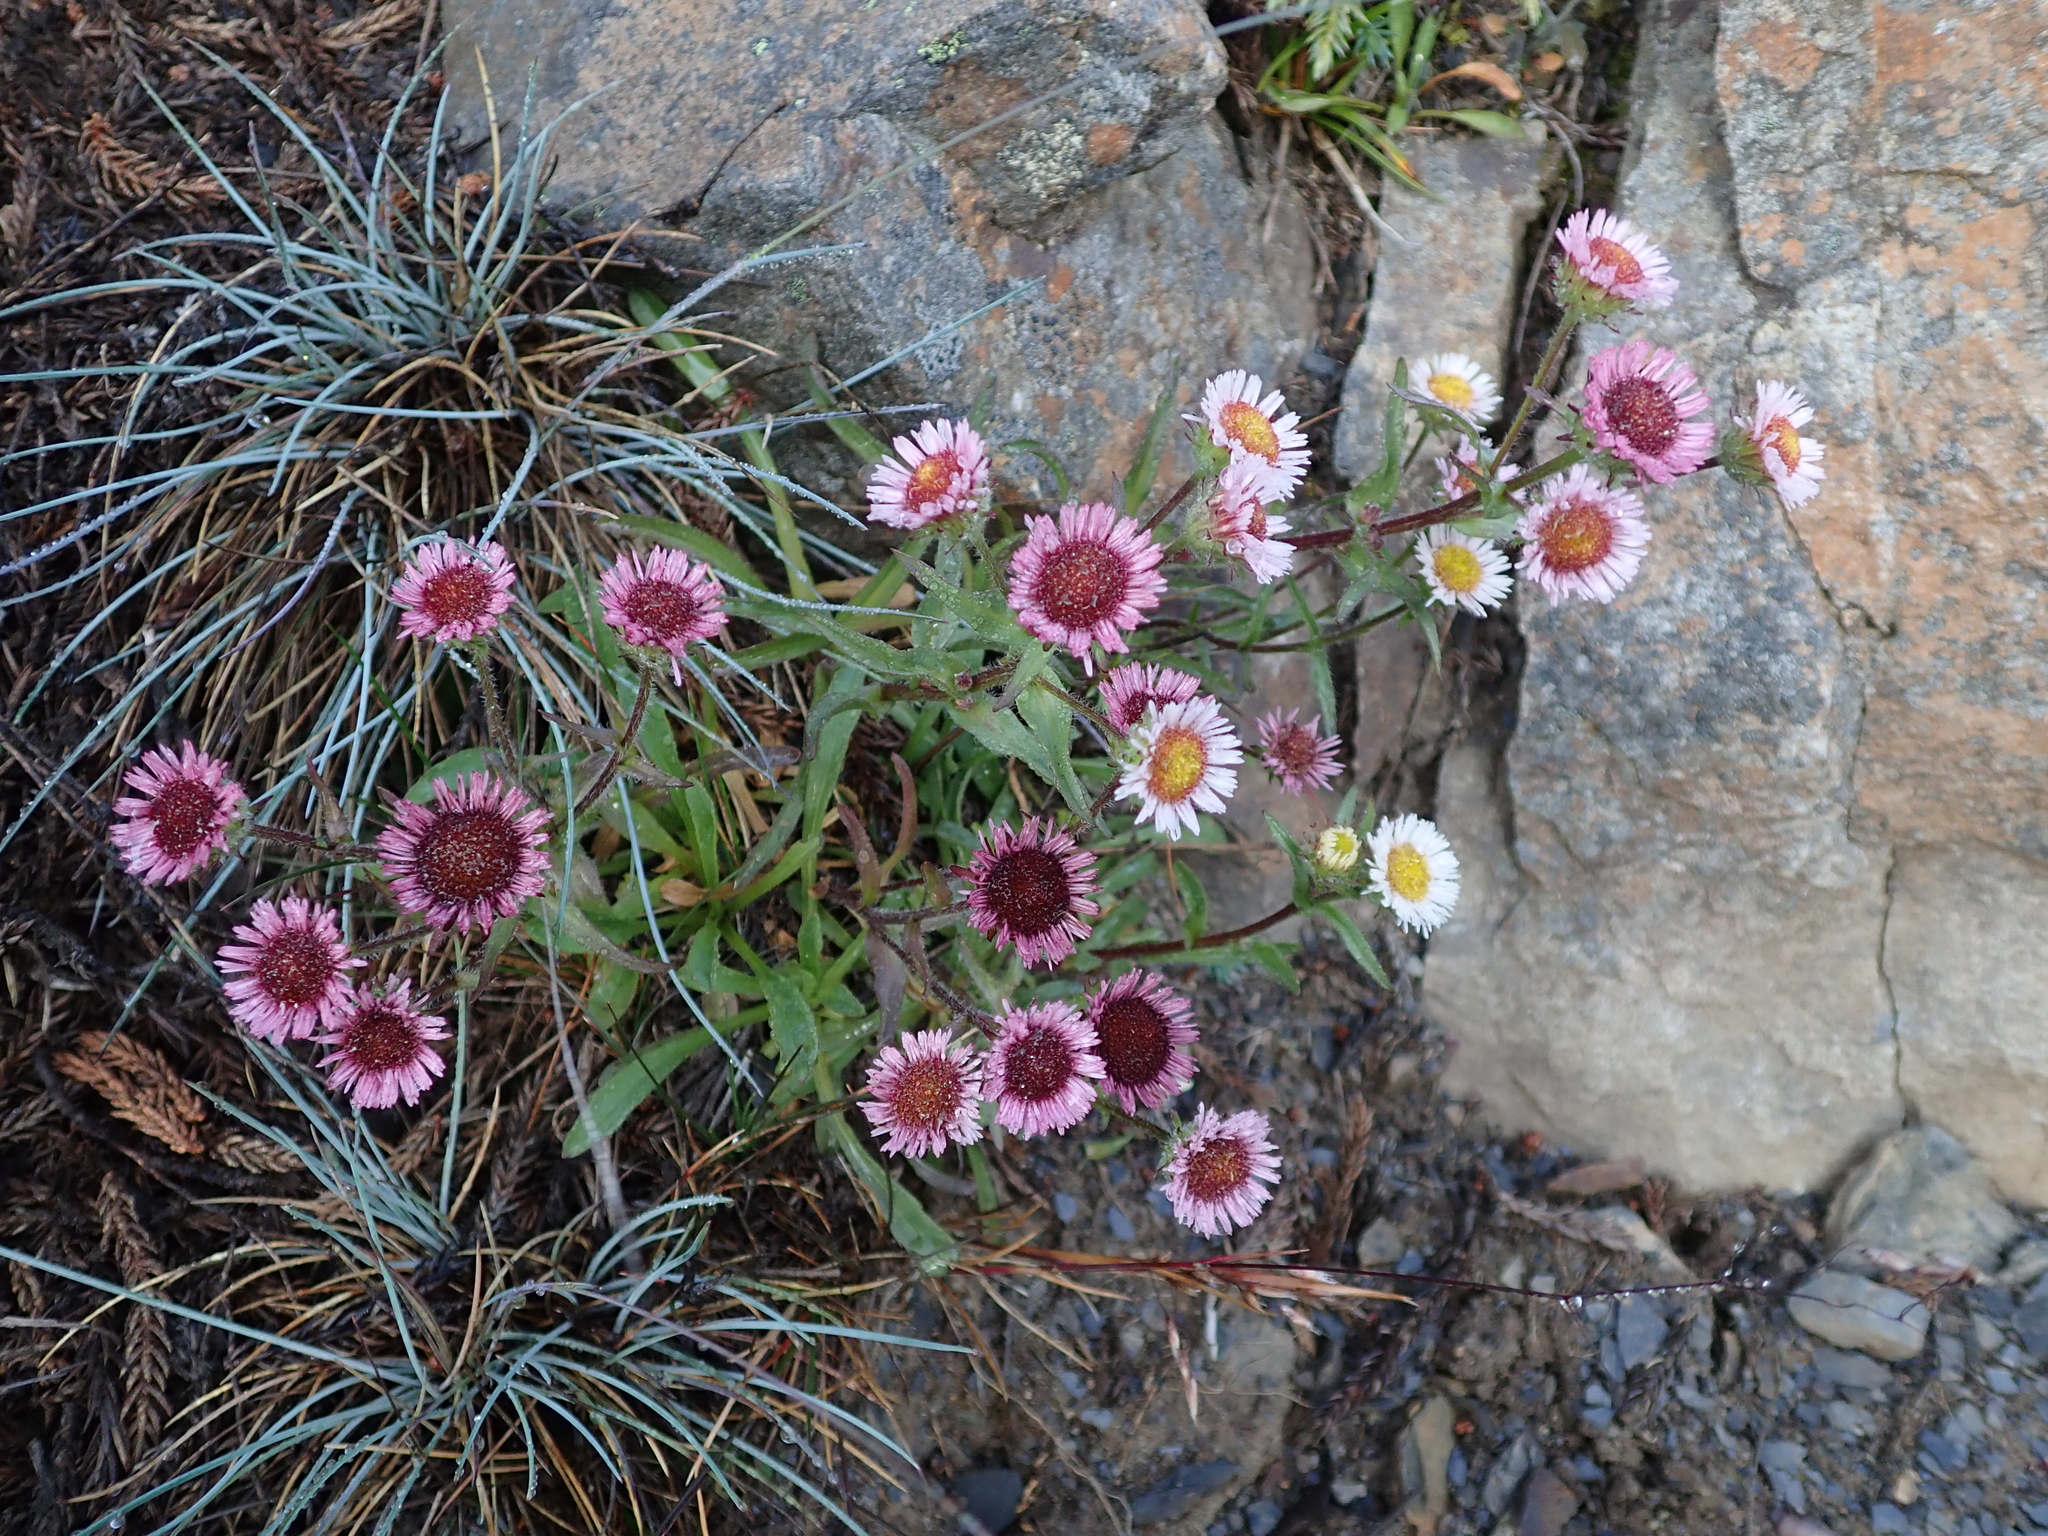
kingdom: Plantae
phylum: Tracheophyta
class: Magnoliopsida
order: Asterales
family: Asteraceae
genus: Erigeron
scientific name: Erigeron morrisonensis
